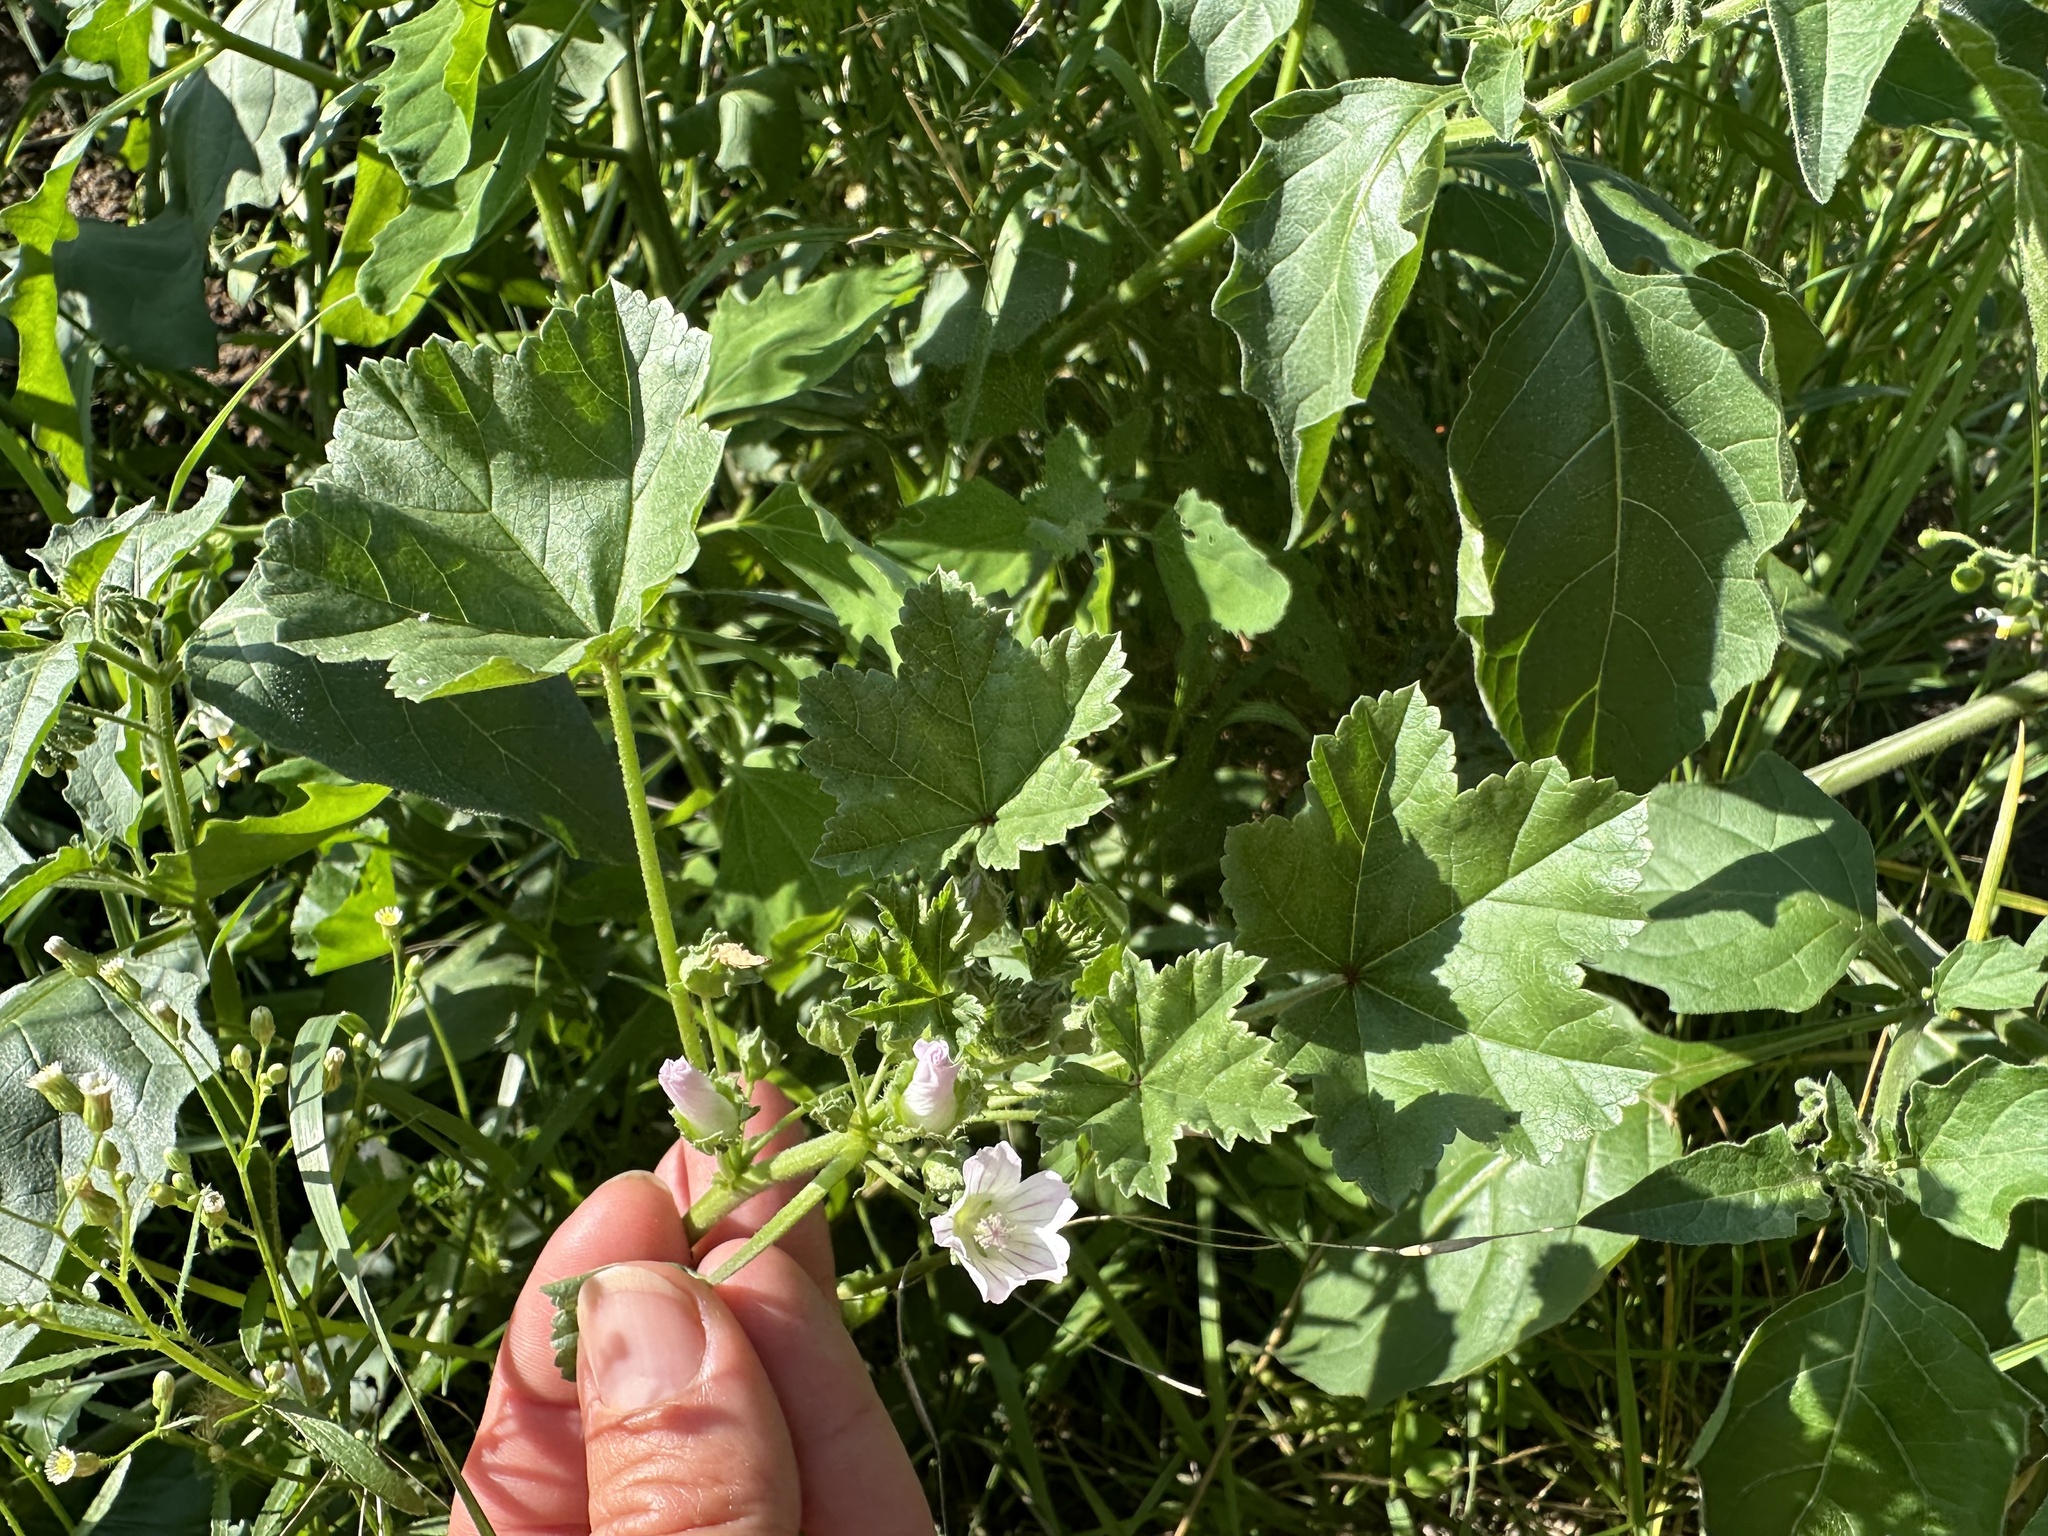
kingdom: Plantae
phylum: Tracheophyta
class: Magnoliopsida
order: Malvales
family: Malvaceae
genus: Malva
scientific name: Malva neglecta
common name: Common mallow
